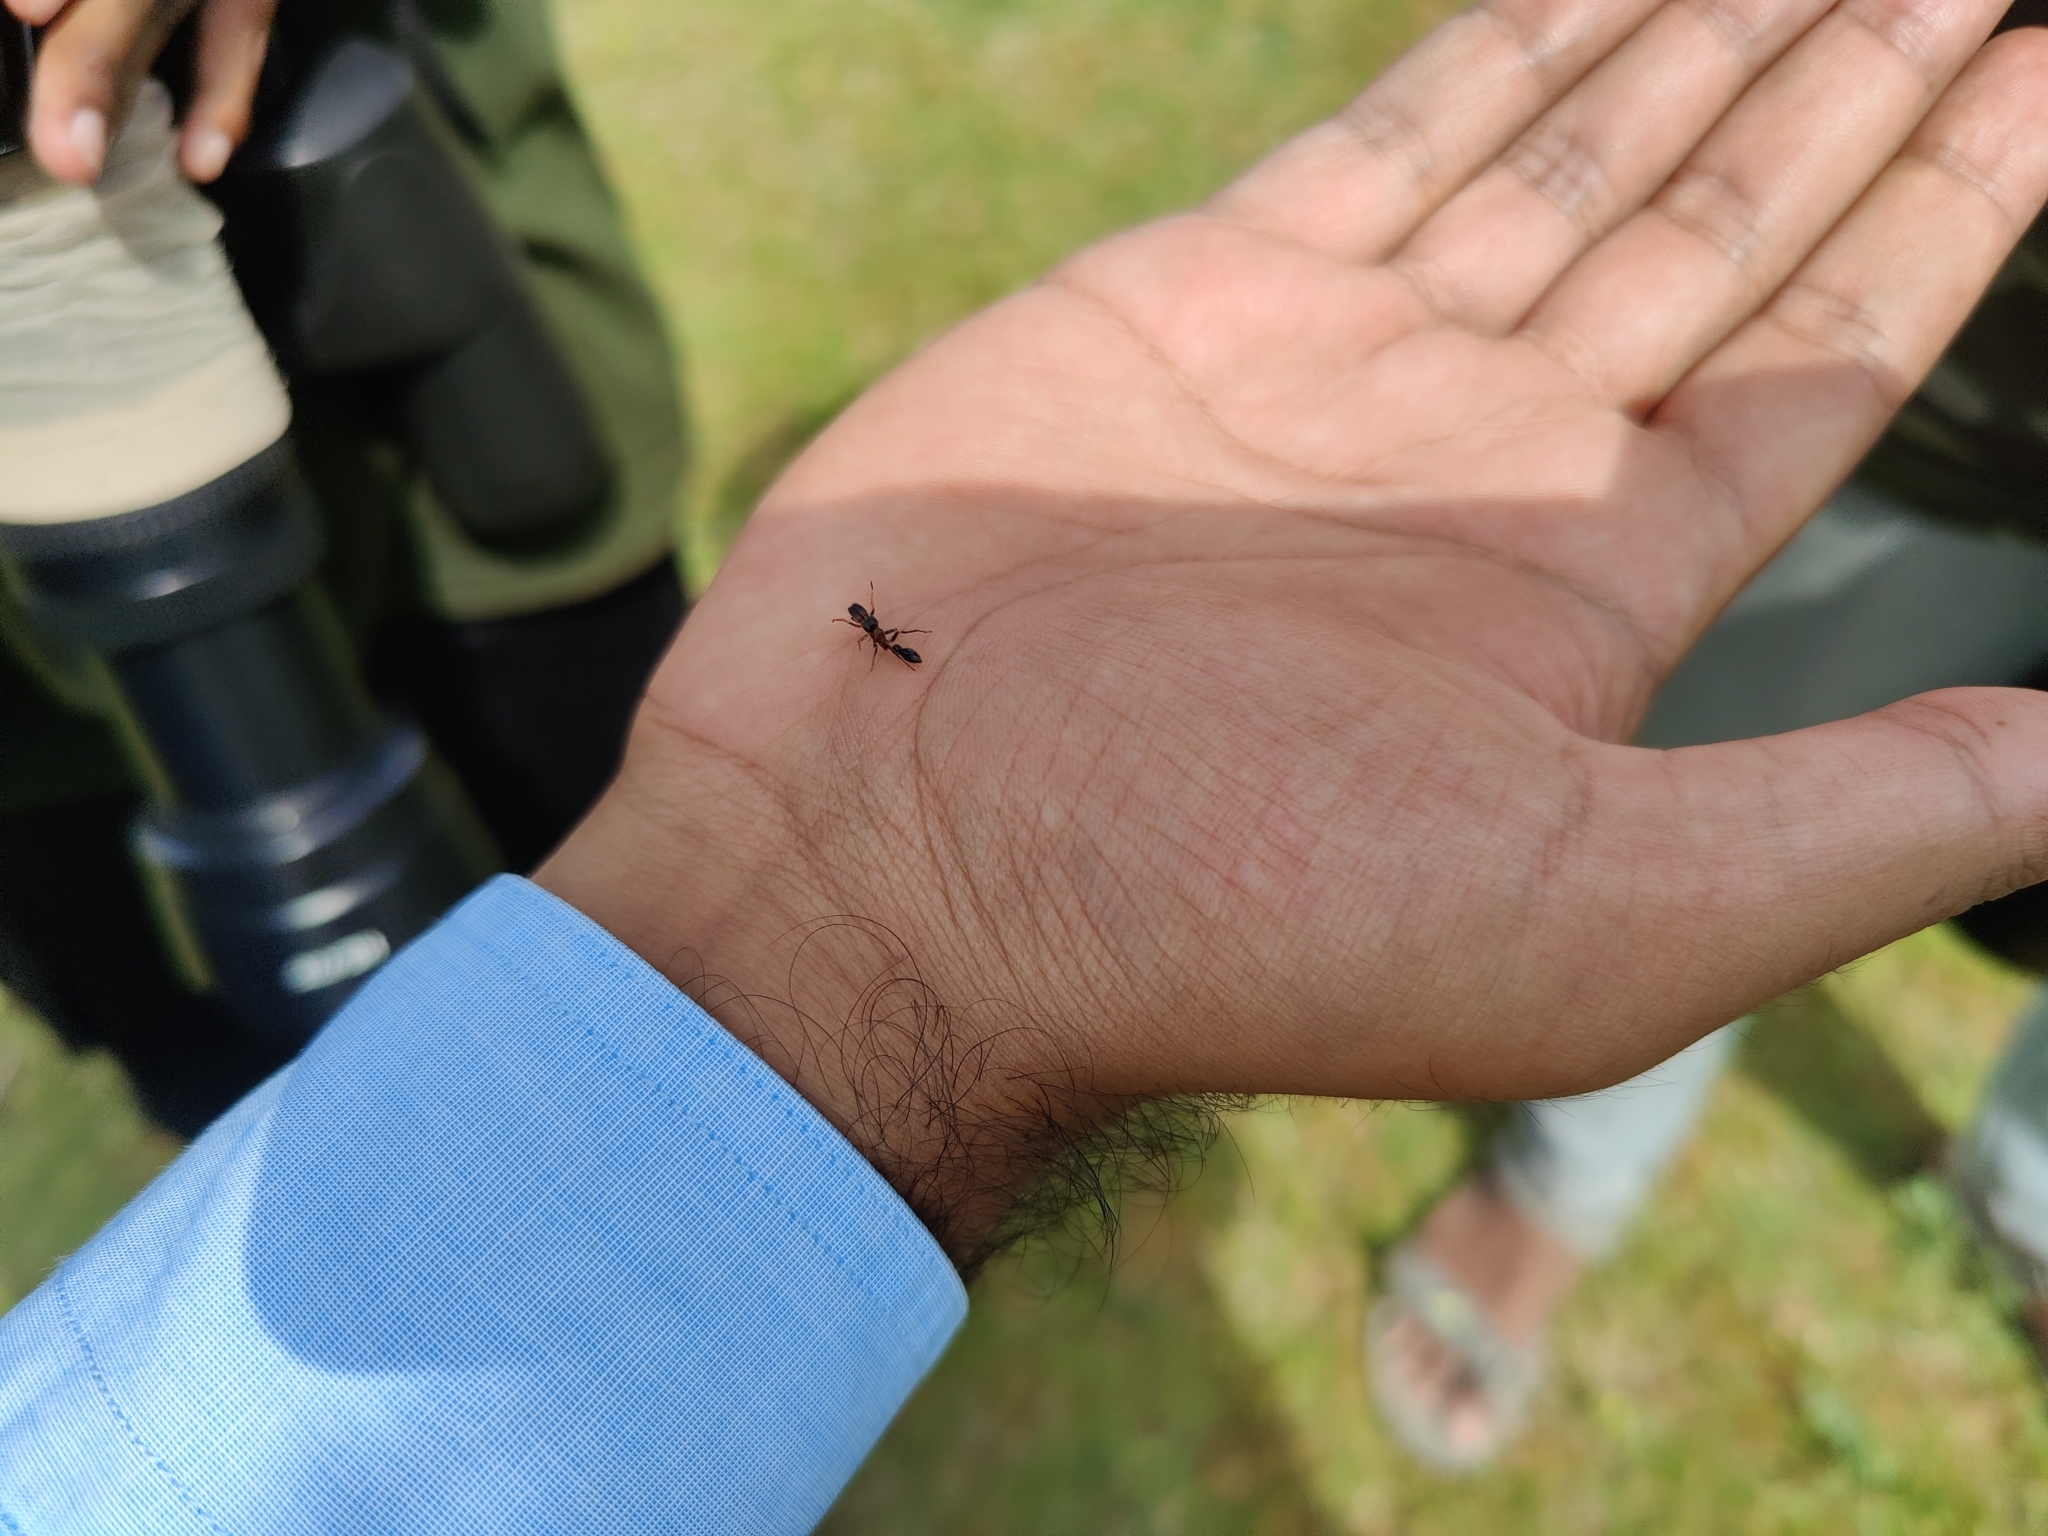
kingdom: Animalia
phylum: Arthropoda
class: Arachnida
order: Araneae
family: Salticidae
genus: Myrmarachne
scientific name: Myrmarachne melanocephala
